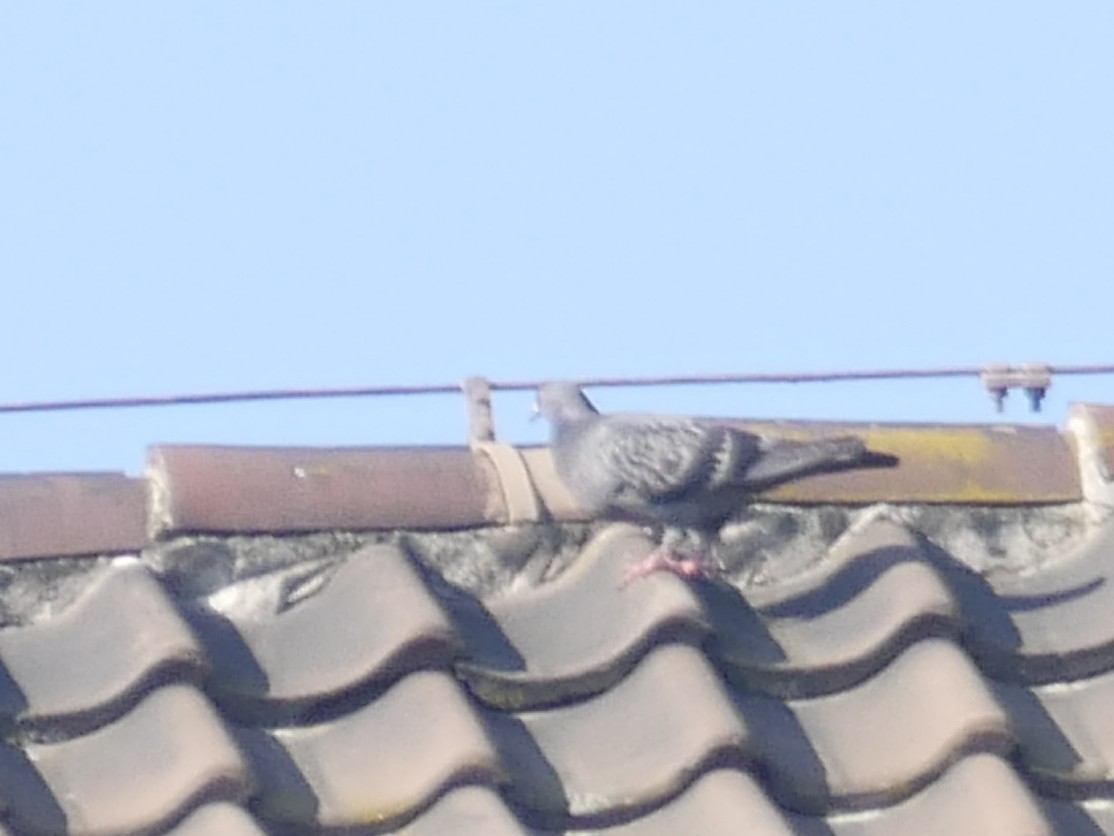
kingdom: Animalia
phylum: Chordata
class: Aves
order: Columbiformes
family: Columbidae
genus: Columba
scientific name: Columba livia
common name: Rock pigeon
